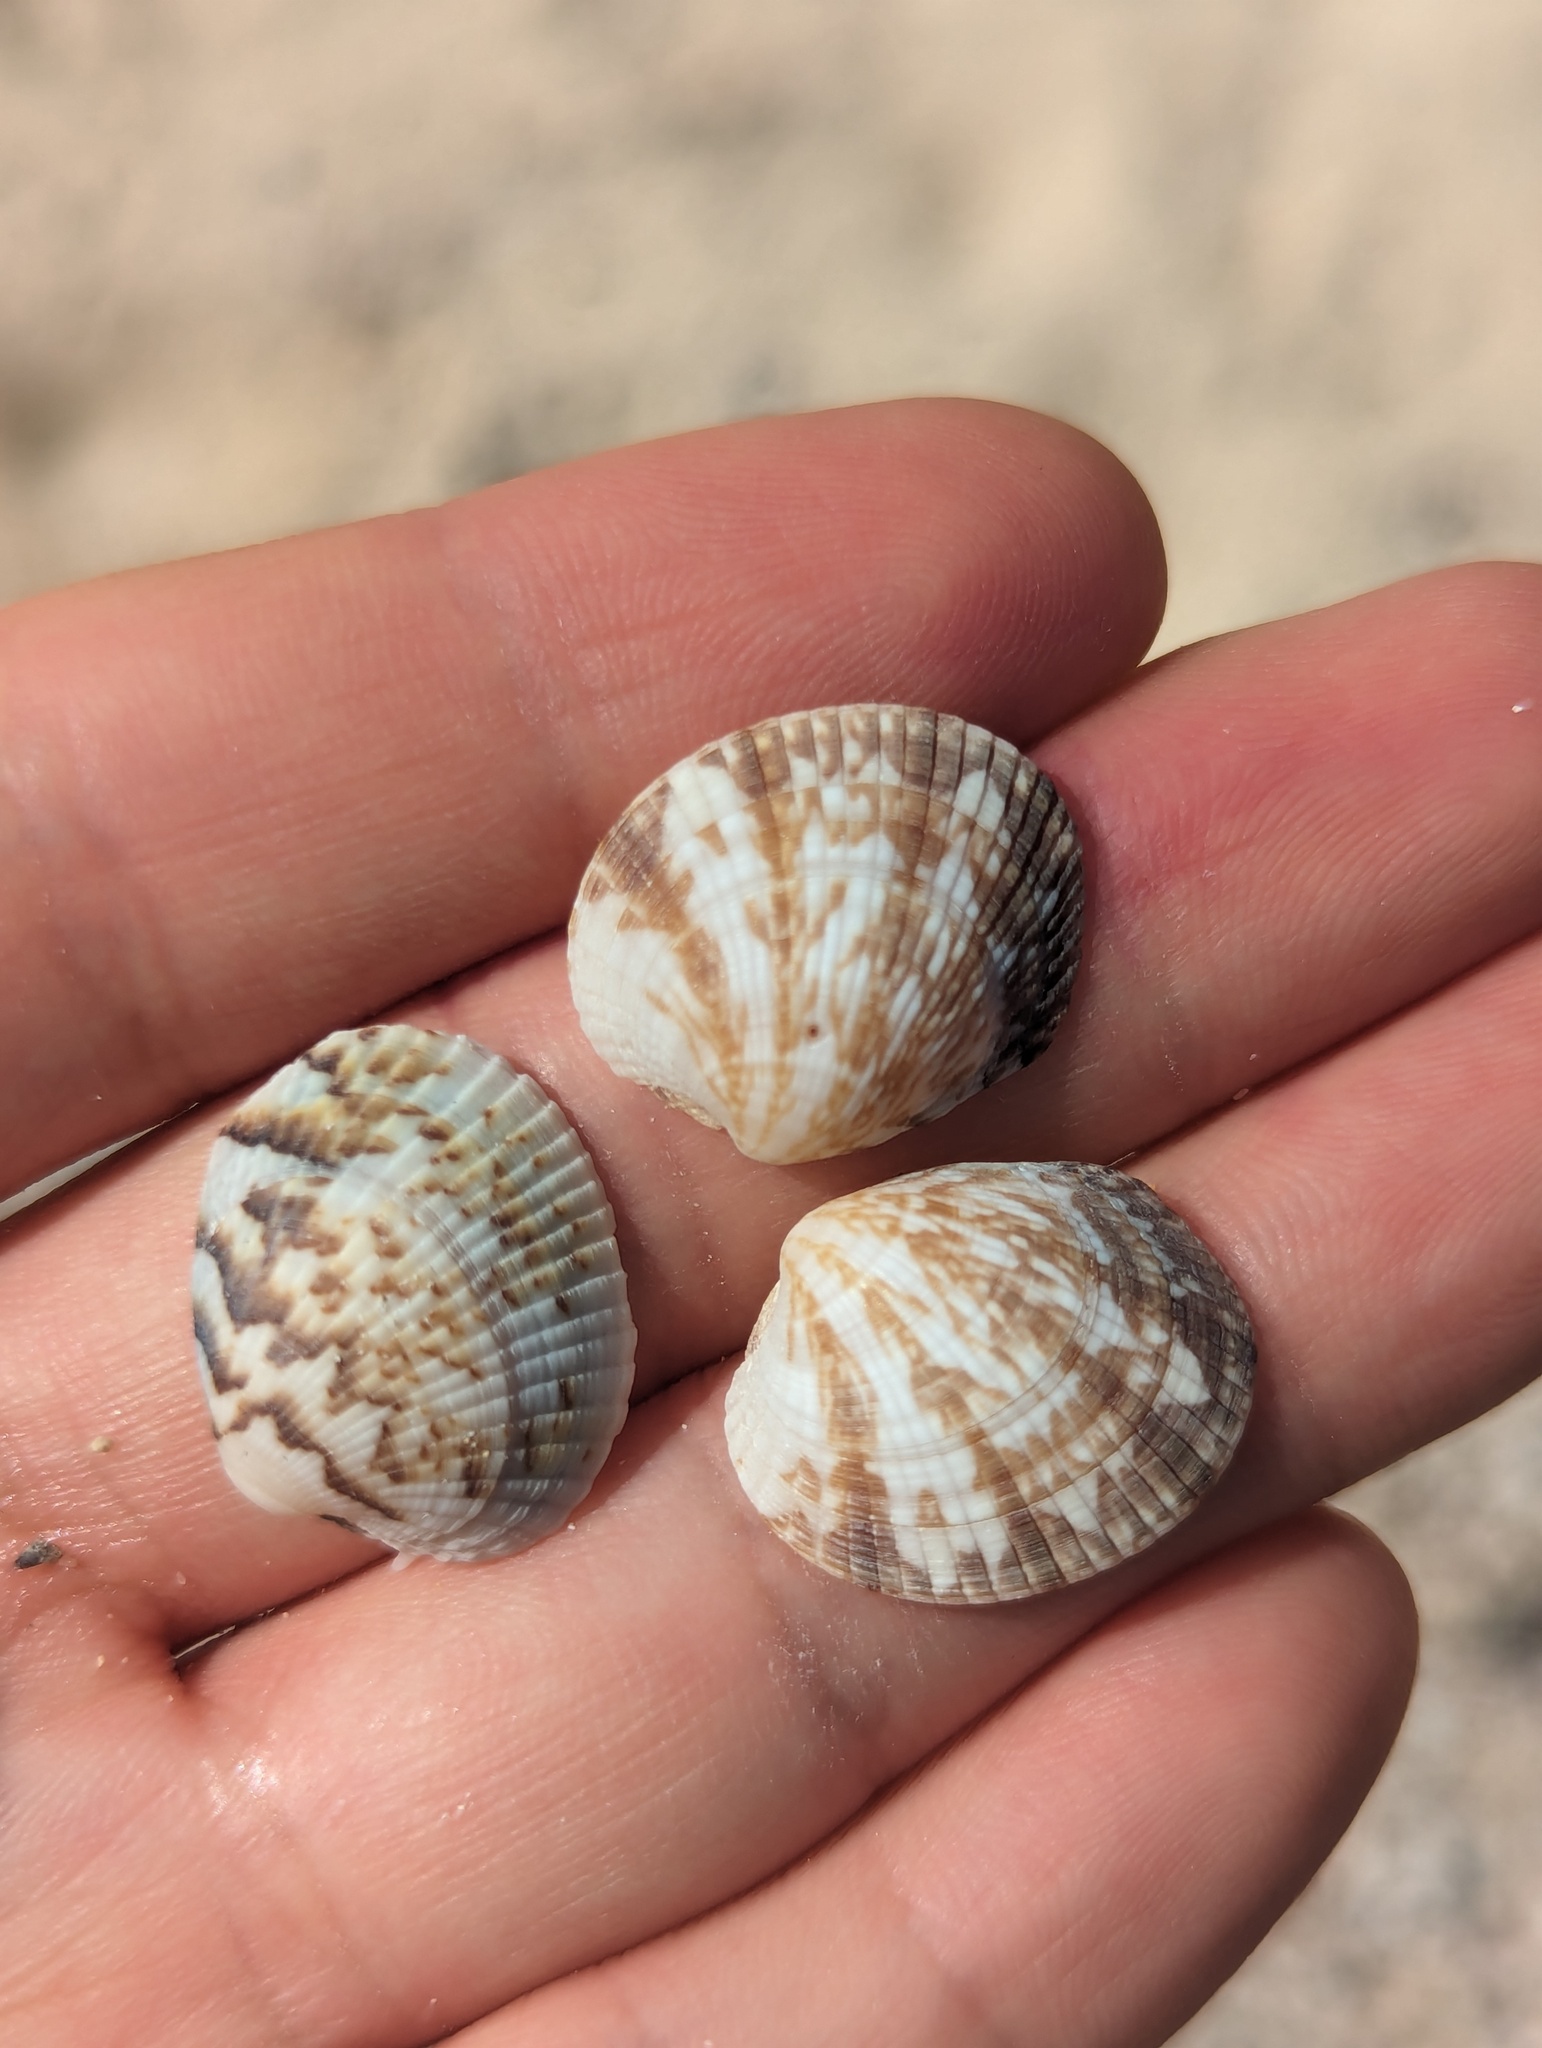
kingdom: Animalia
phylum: Mollusca
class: Bivalvia
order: Venerida
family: Veneridae
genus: Leukoma
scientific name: Leukoma pertincta
